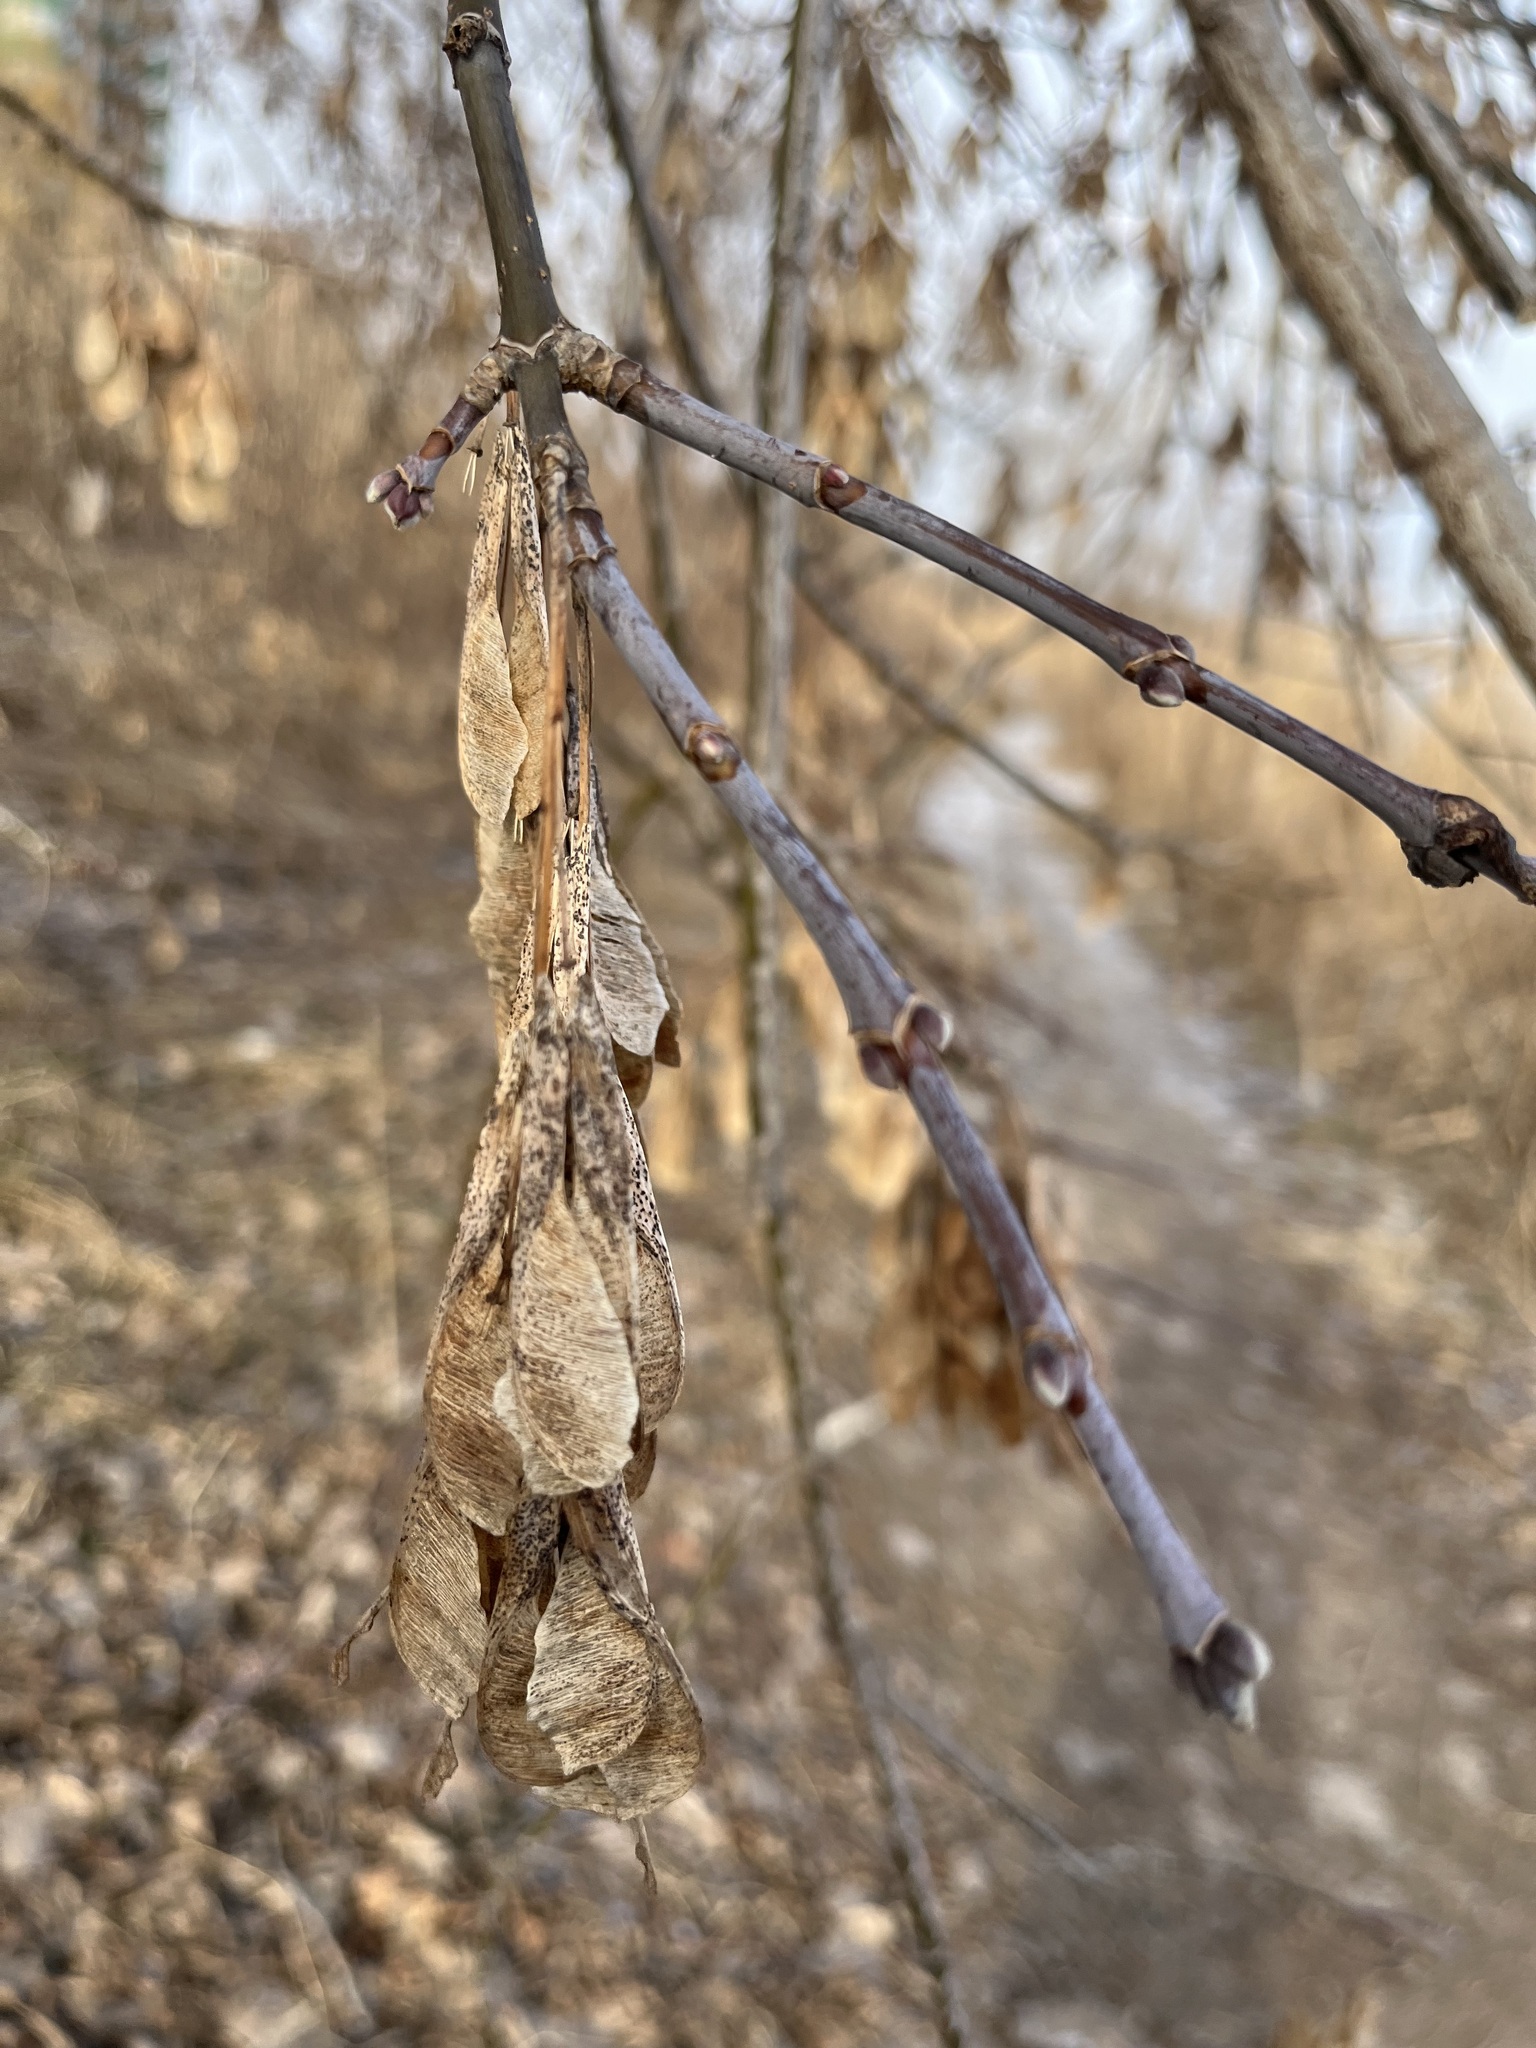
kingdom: Plantae
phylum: Tracheophyta
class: Magnoliopsida
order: Sapindales
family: Sapindaceae
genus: Acer
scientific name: Acer negundo
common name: Ashleaf maple
